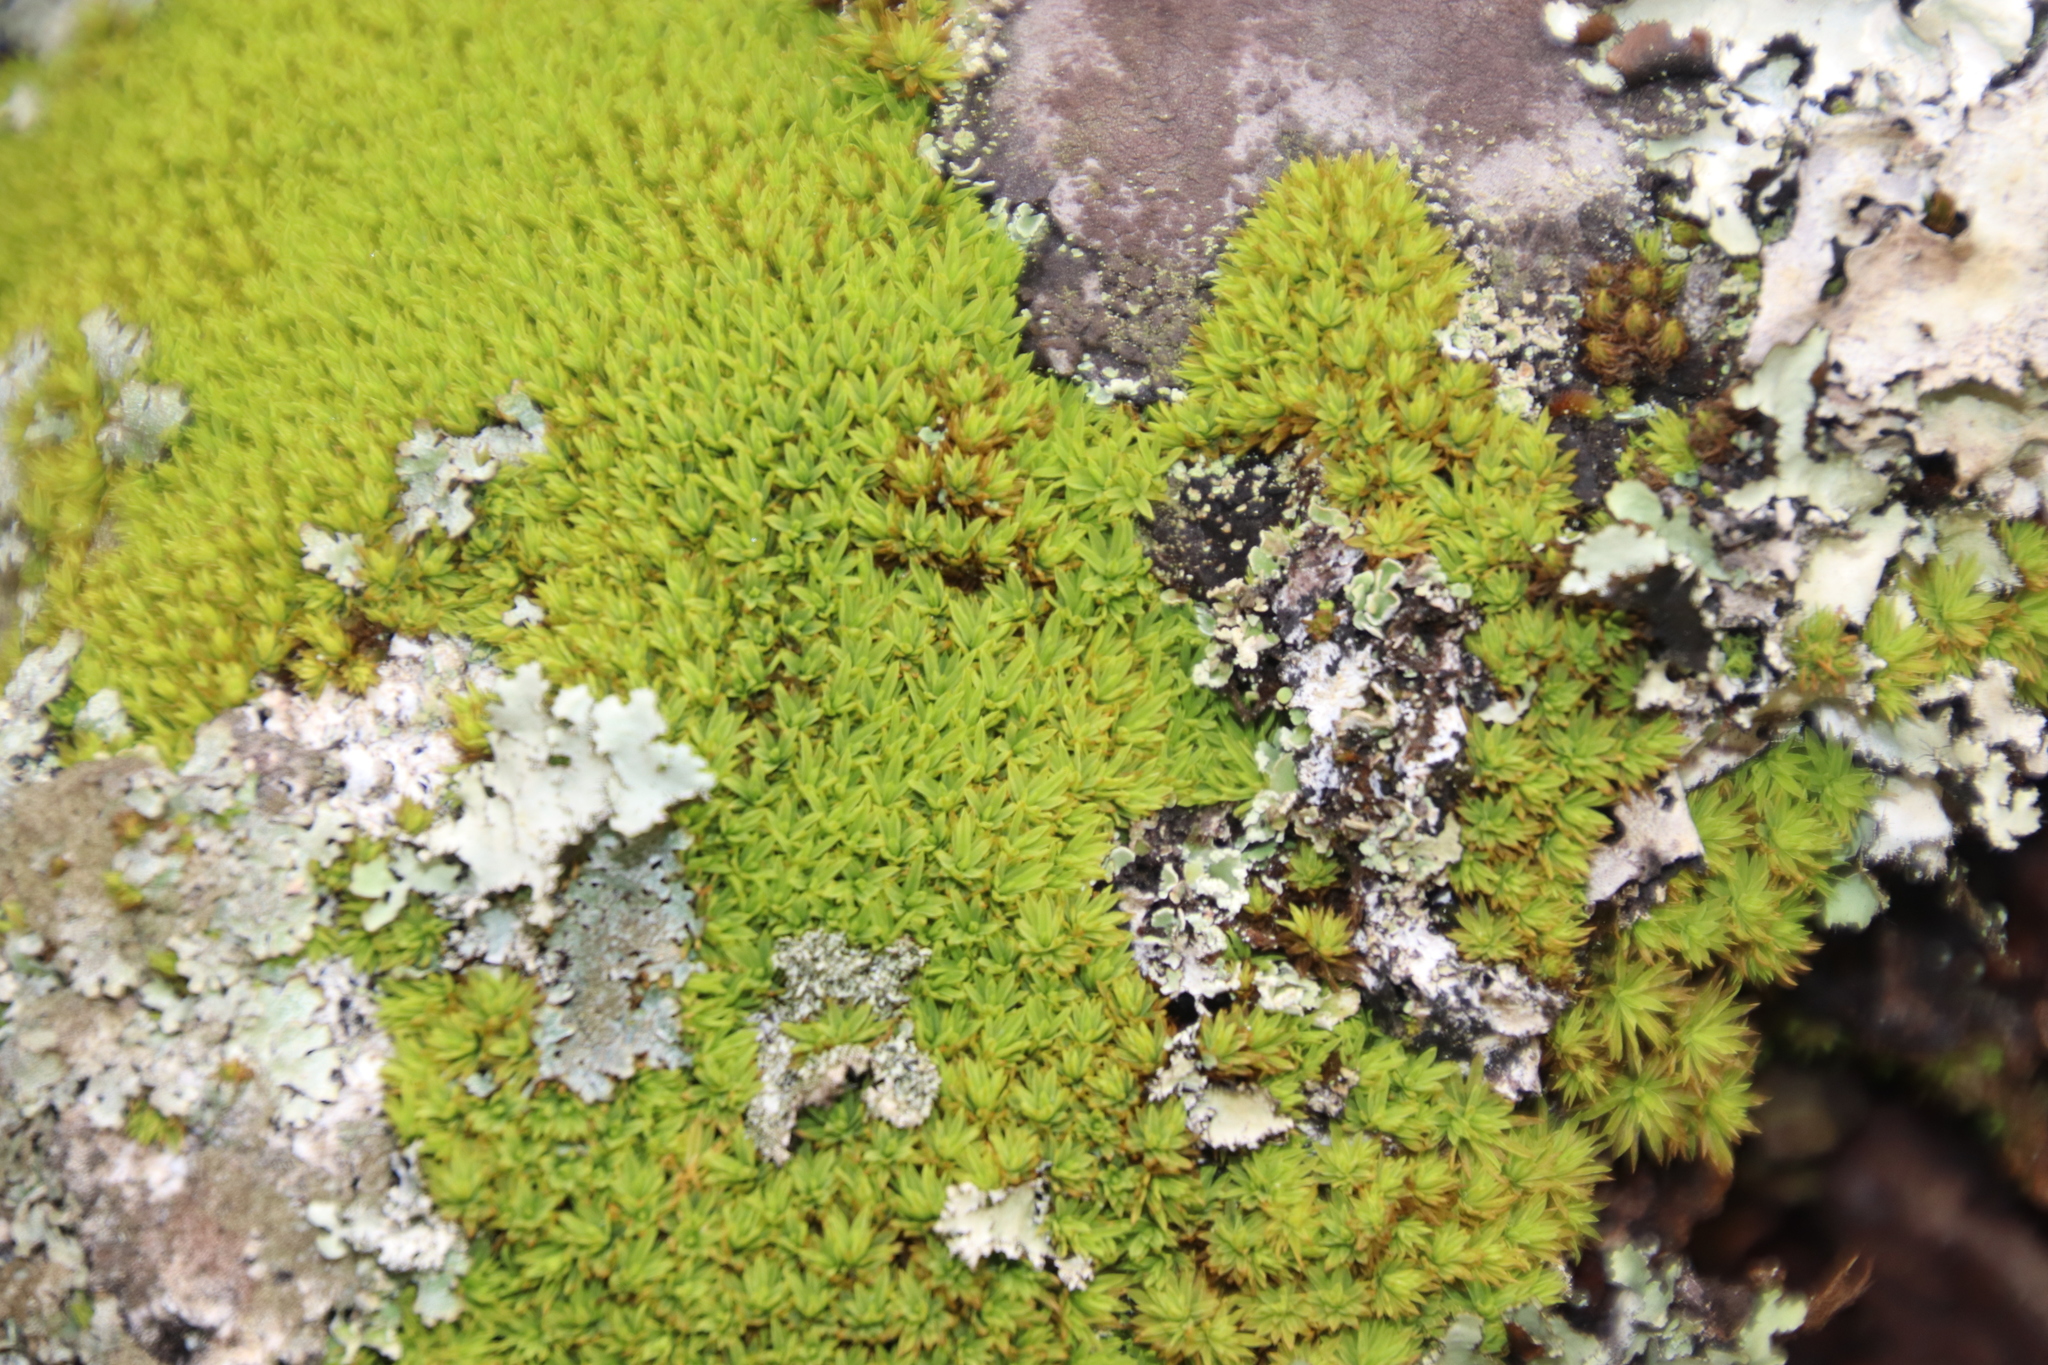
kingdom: Plantae
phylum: Bryophyta
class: Bryopsida
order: Dicranales
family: Hypodontiaceae
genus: Hypodontium
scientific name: Hypodontium pomiforme
